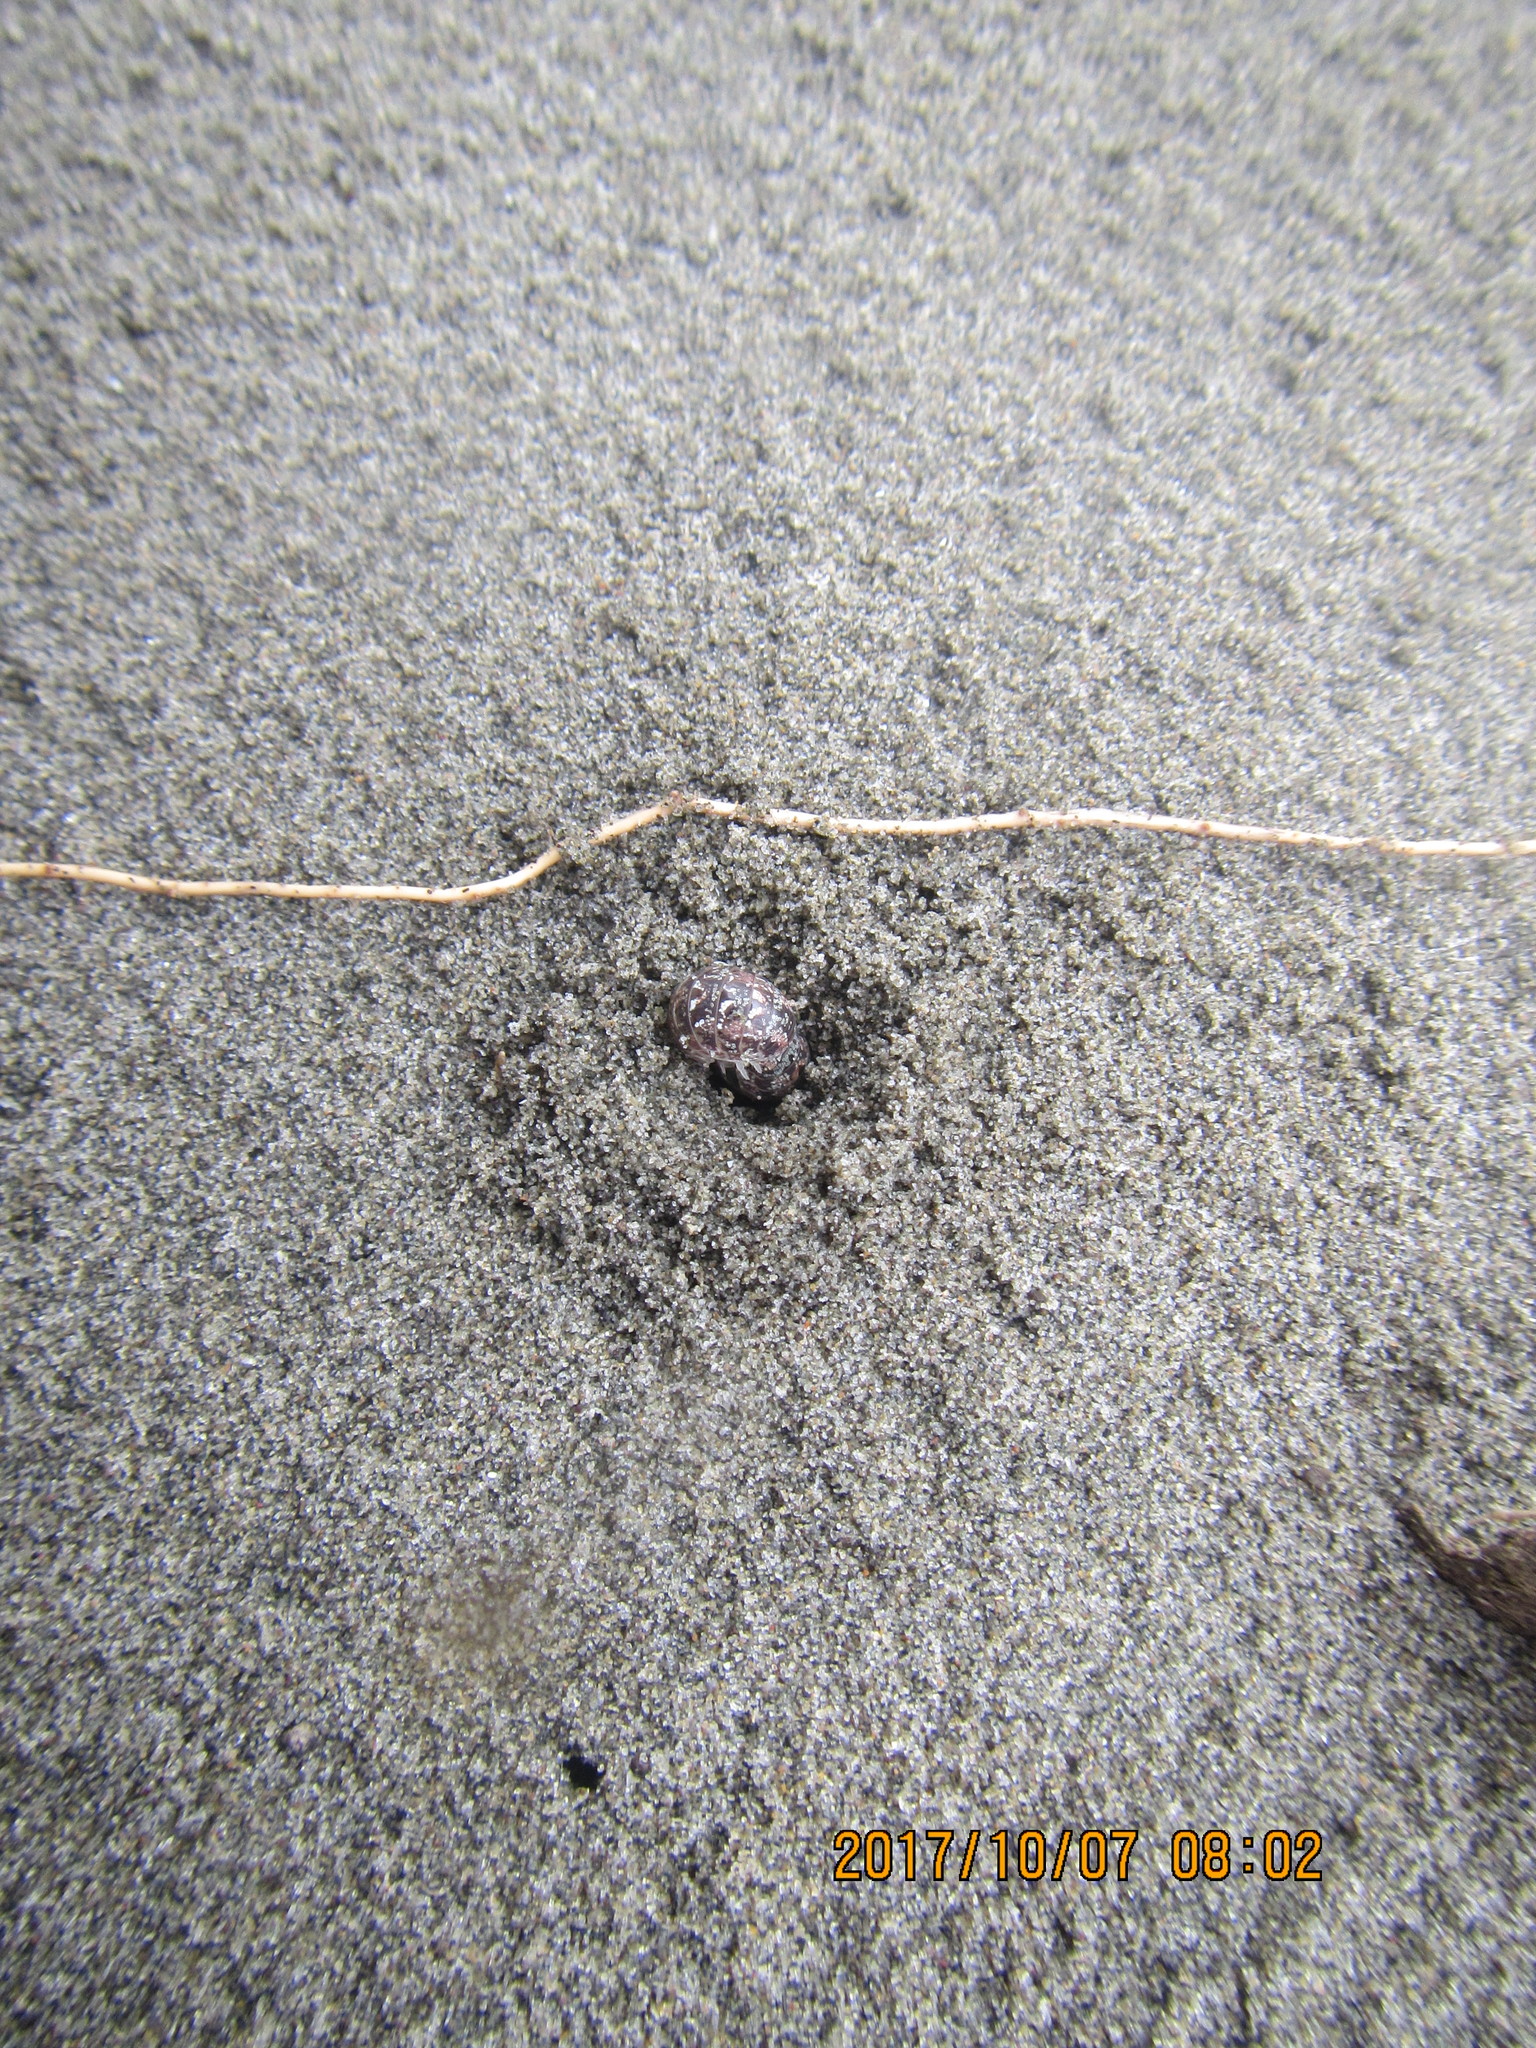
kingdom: Animalia
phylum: Arthropoda
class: Malacostraca
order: Isopoda
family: Tylidae
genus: Tylos
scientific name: Tylos neozelanicus
